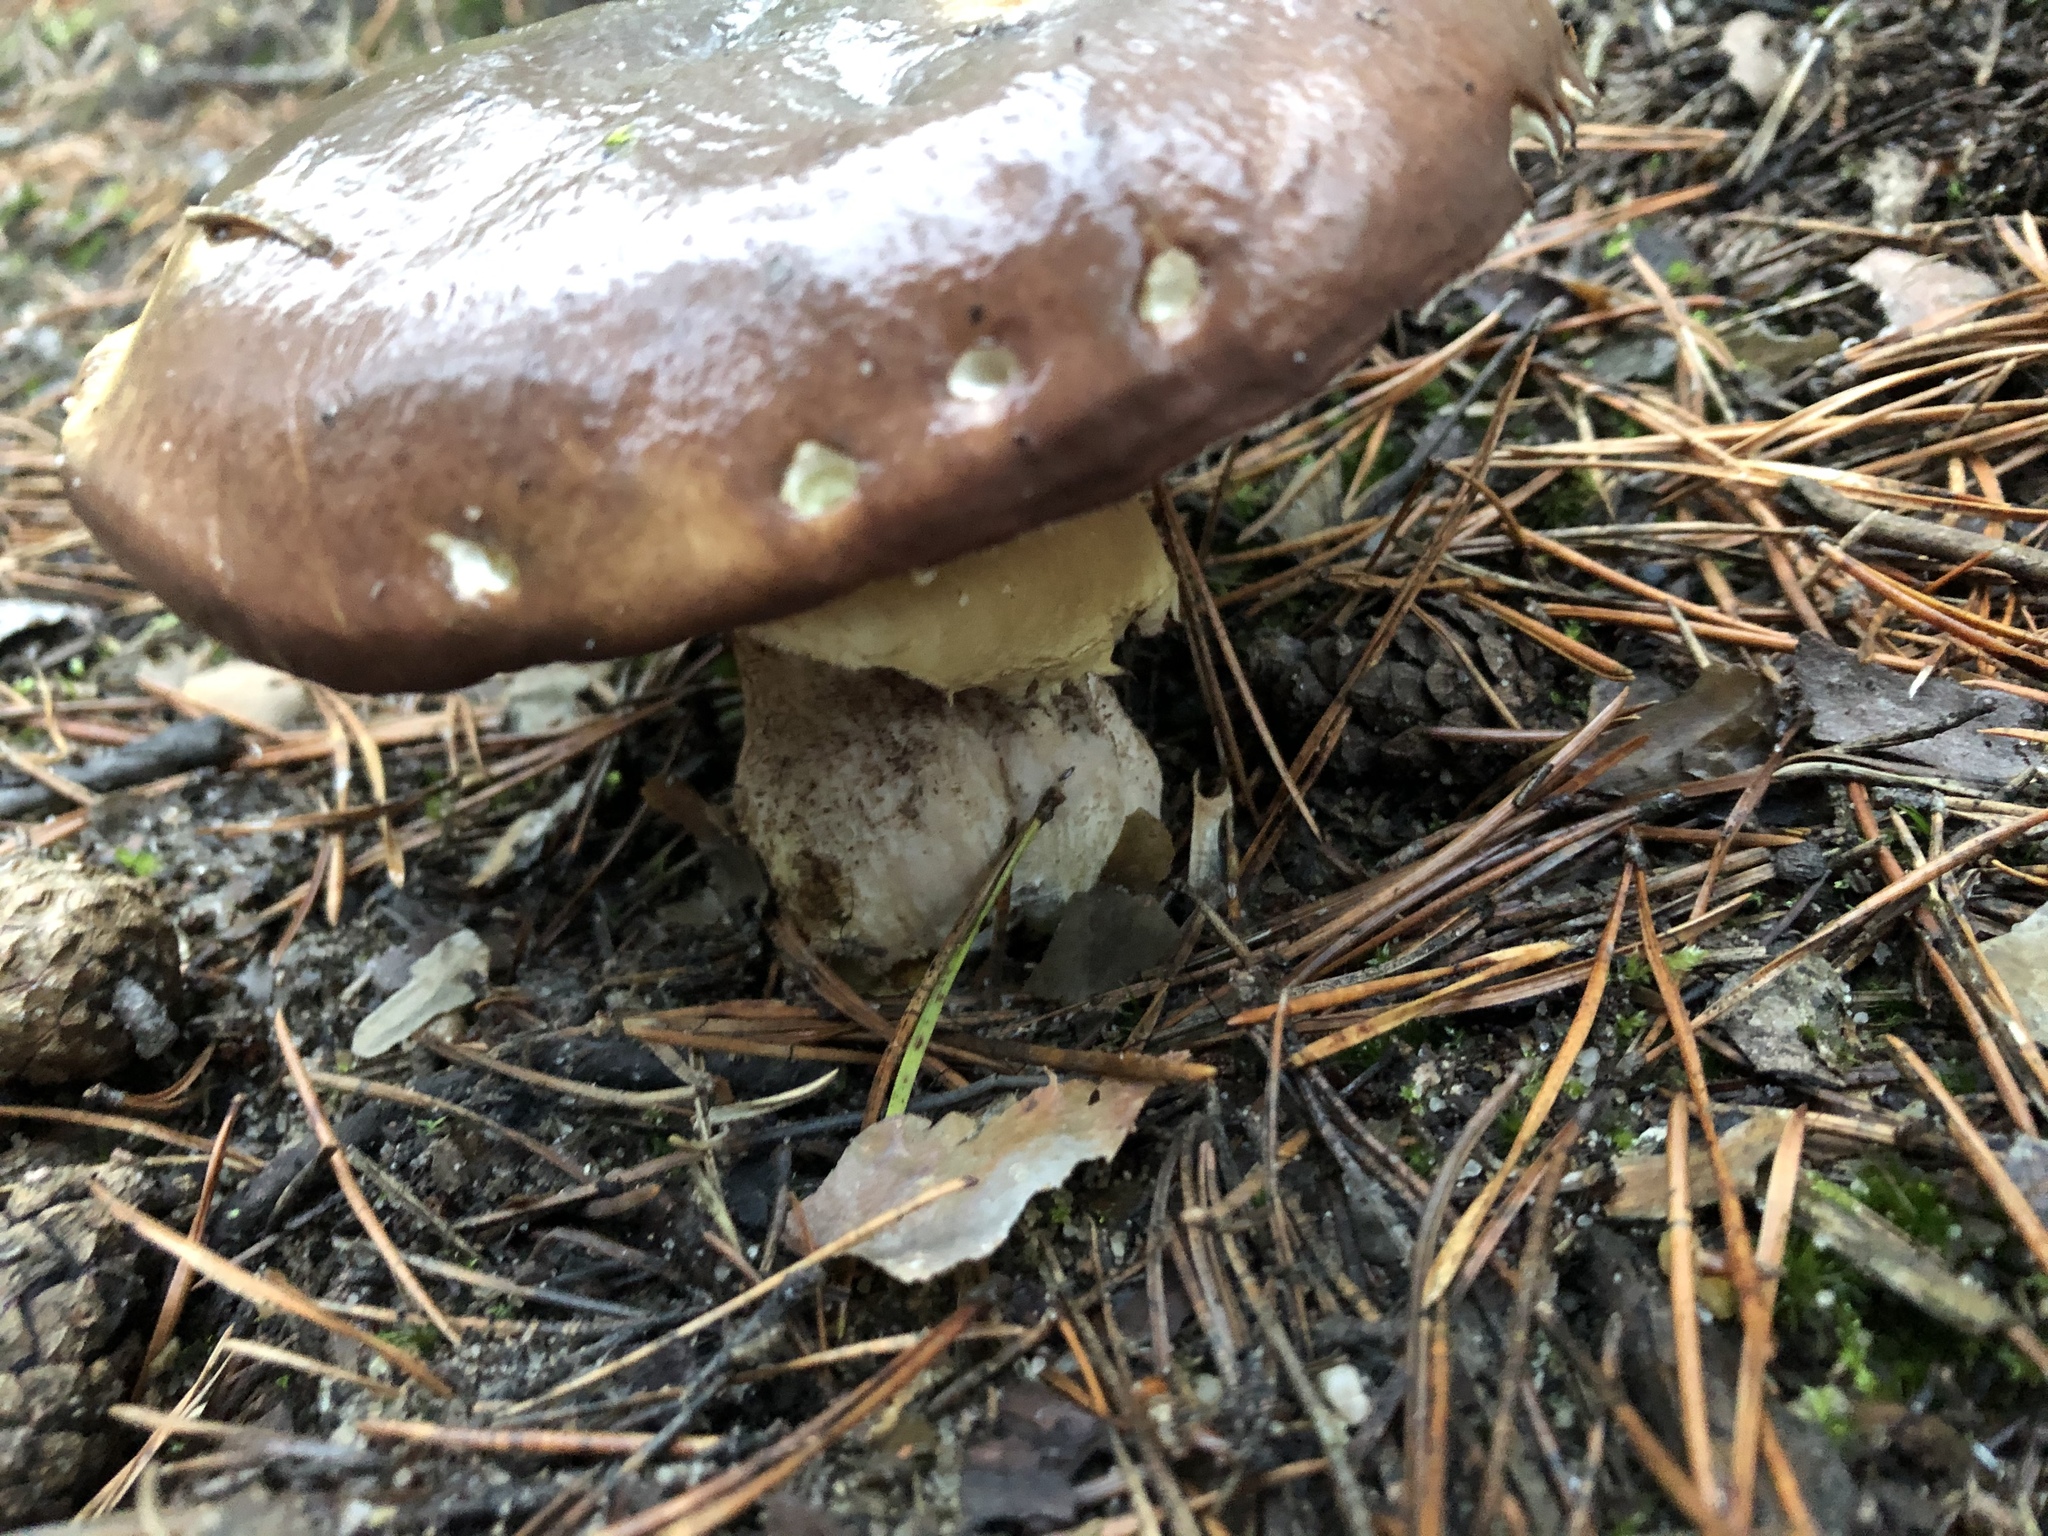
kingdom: Fungi
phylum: Basidiomycota
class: Agaricomycetes
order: Boletales
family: Suillaceae
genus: Suillus
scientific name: Suillus luteus
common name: Slippery jack
